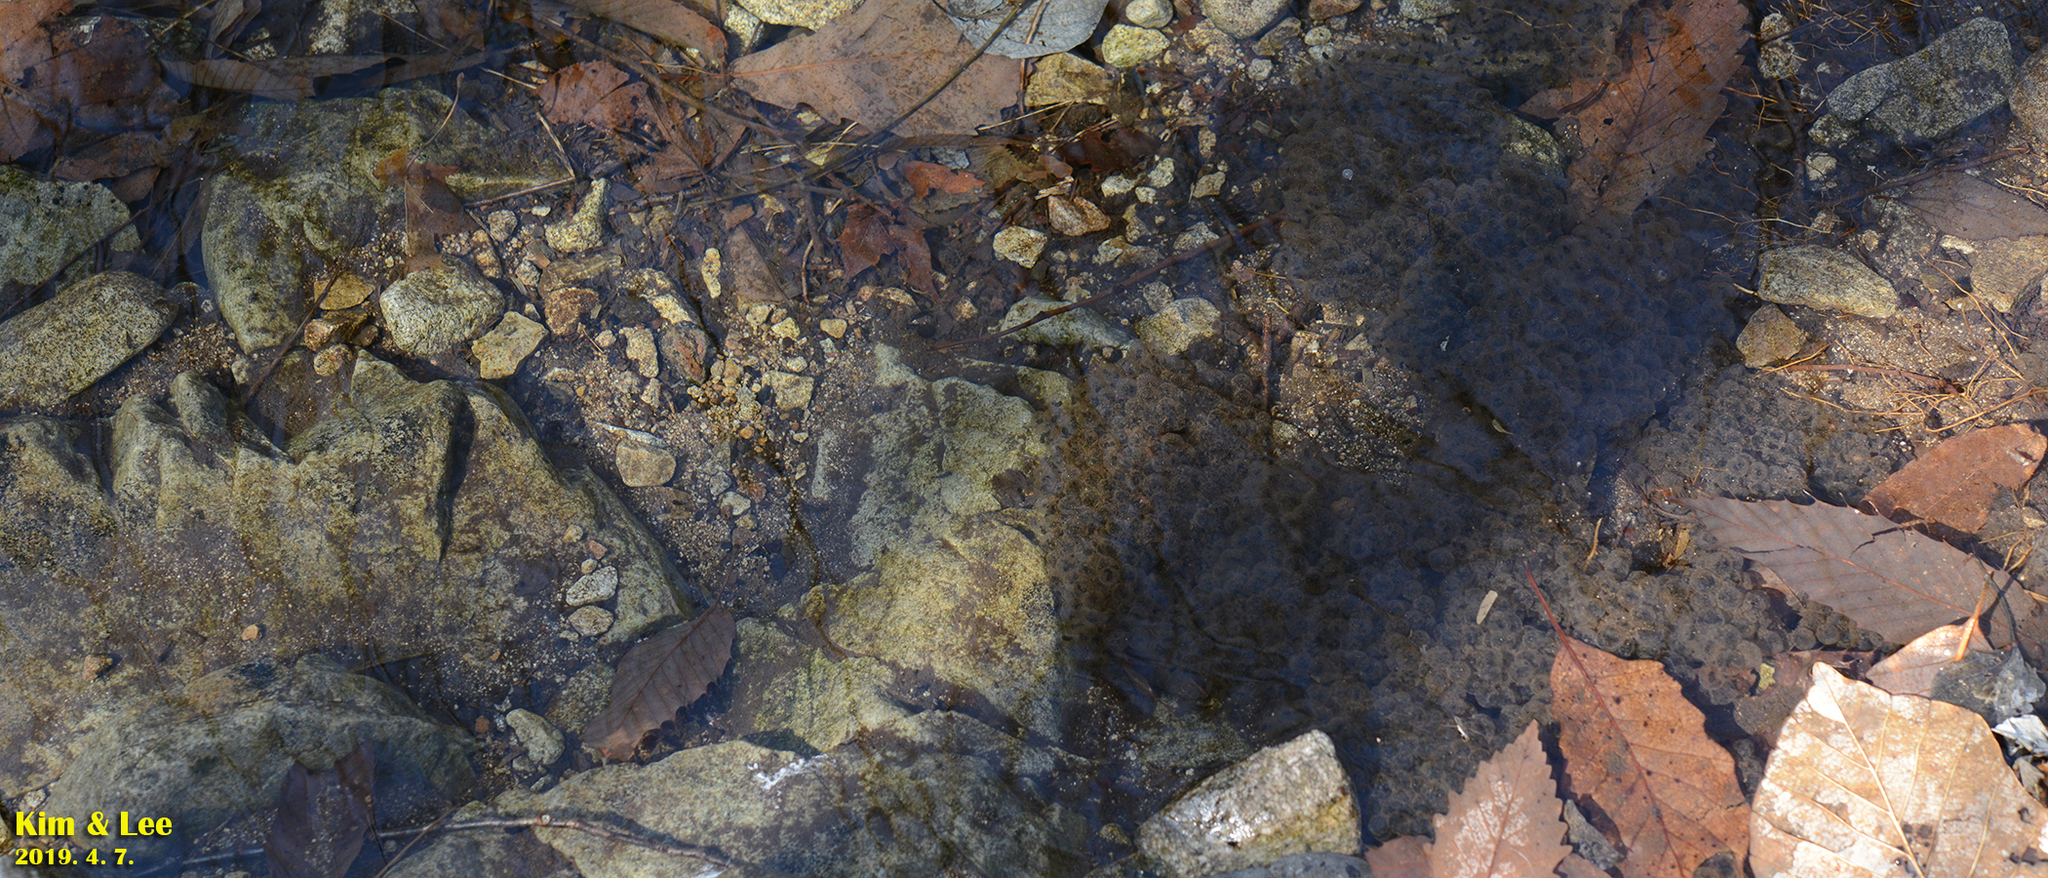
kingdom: Animalia
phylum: Chordata
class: Amphibia
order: Anura
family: Ranidae
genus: Rana
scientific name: Rana huanrenensis
